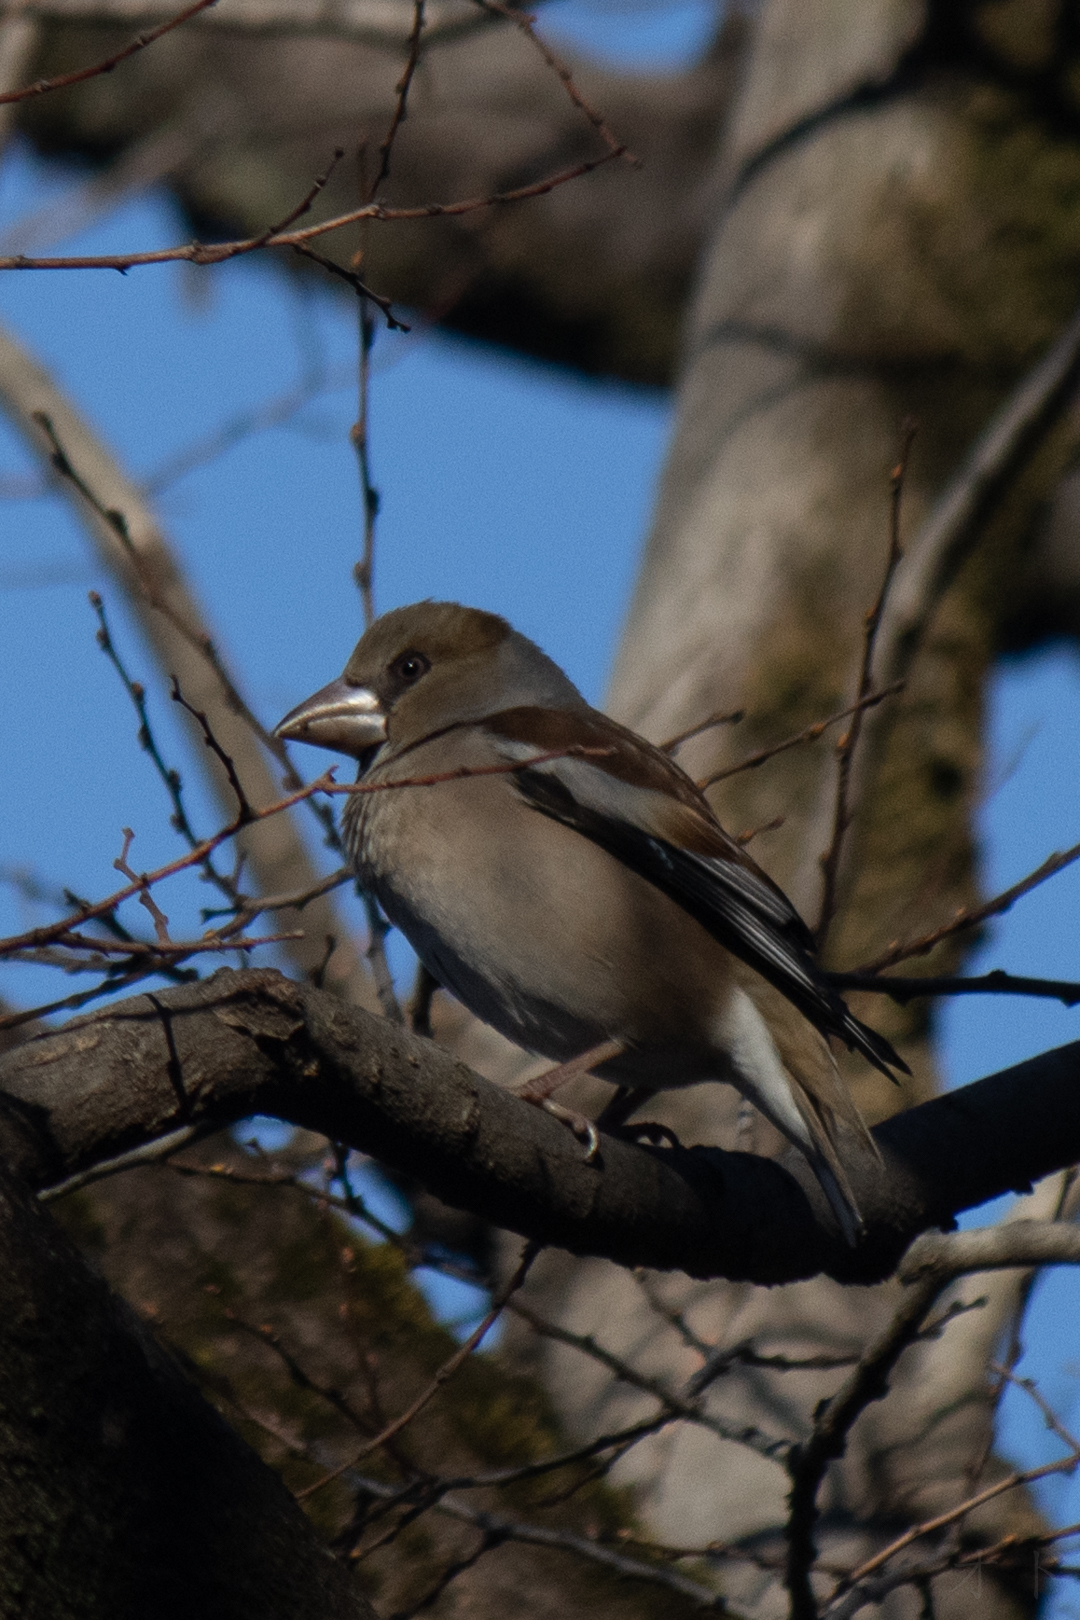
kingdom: Animalia
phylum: Chordata
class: Aves
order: Passeriformes
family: Fringillidae
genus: Coccothraustes
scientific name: Coccothraustes coccothraustes
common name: Hawfinch
